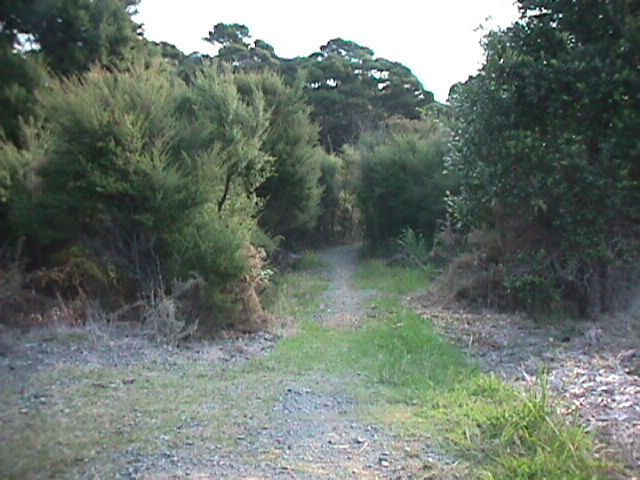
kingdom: Plantae
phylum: Tracheophyta
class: Magnoliopsida
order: Myrtales
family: Myrtaceae
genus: Leptospermum
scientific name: Leptospermum scoparium
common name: Broom tea-tree
